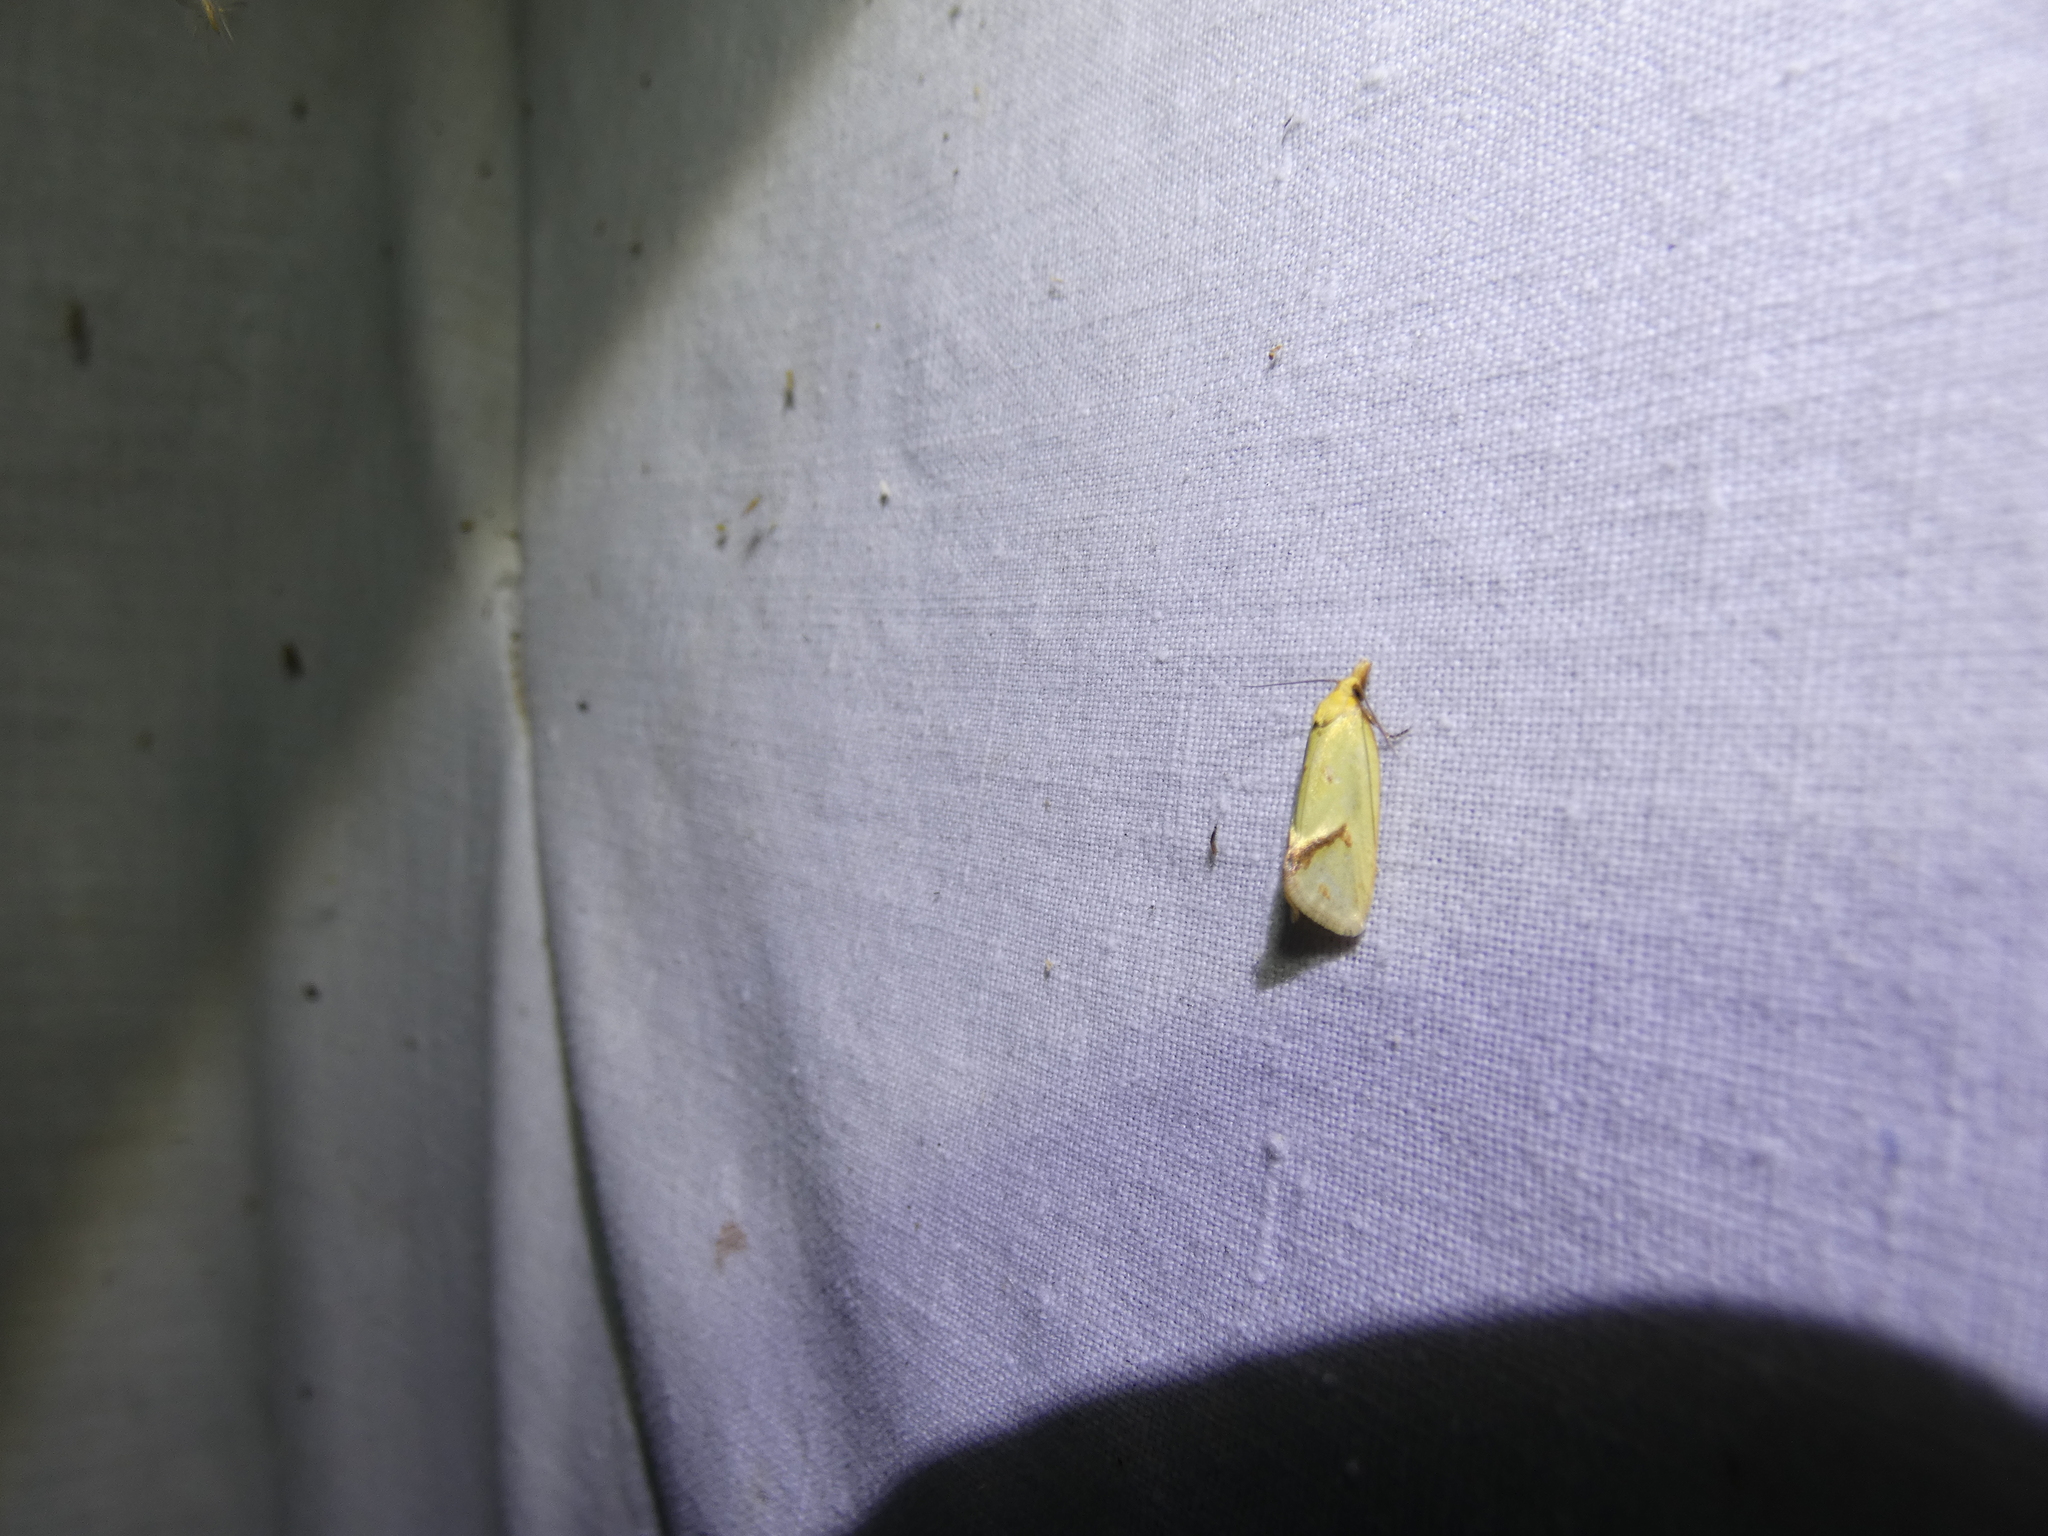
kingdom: Animalia
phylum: Arthropoda
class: Insecta
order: Lepidoptera
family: Tortricidae
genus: Agapeta
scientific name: Agapeta hamana
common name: Common yellow conch
